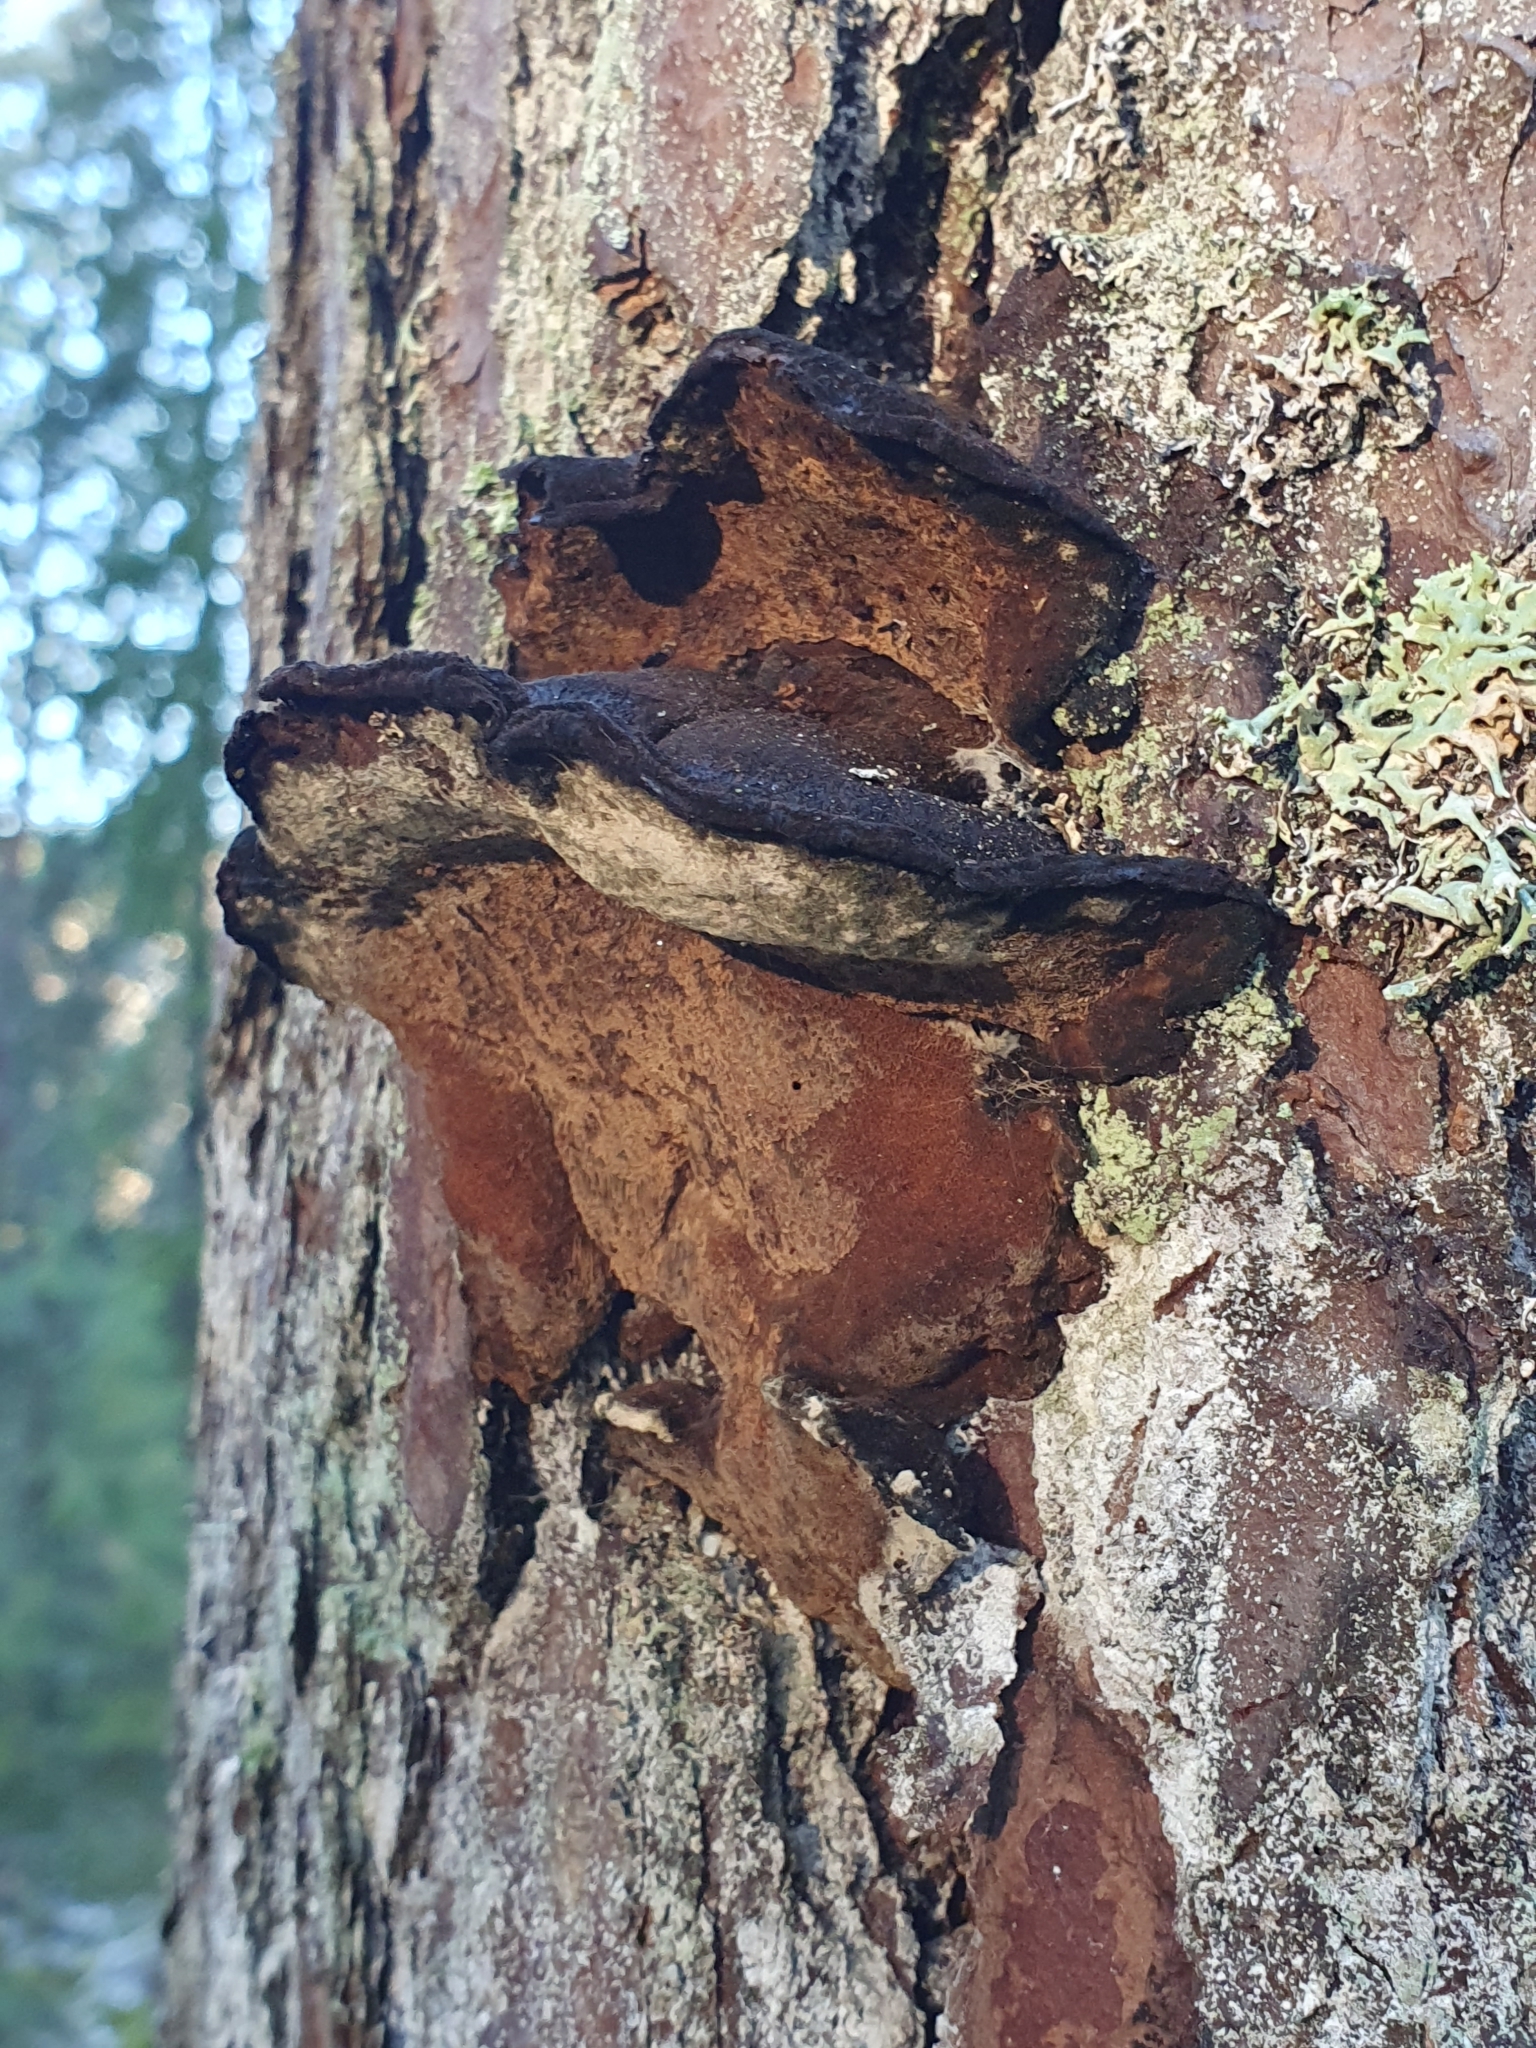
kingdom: Fungi
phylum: Basidiomycota
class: Agaricomycetes
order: Hymenochaetales
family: Hymenochaetaceae
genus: Porodaedalea
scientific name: Porodaedalea pini
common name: Pine bracket
